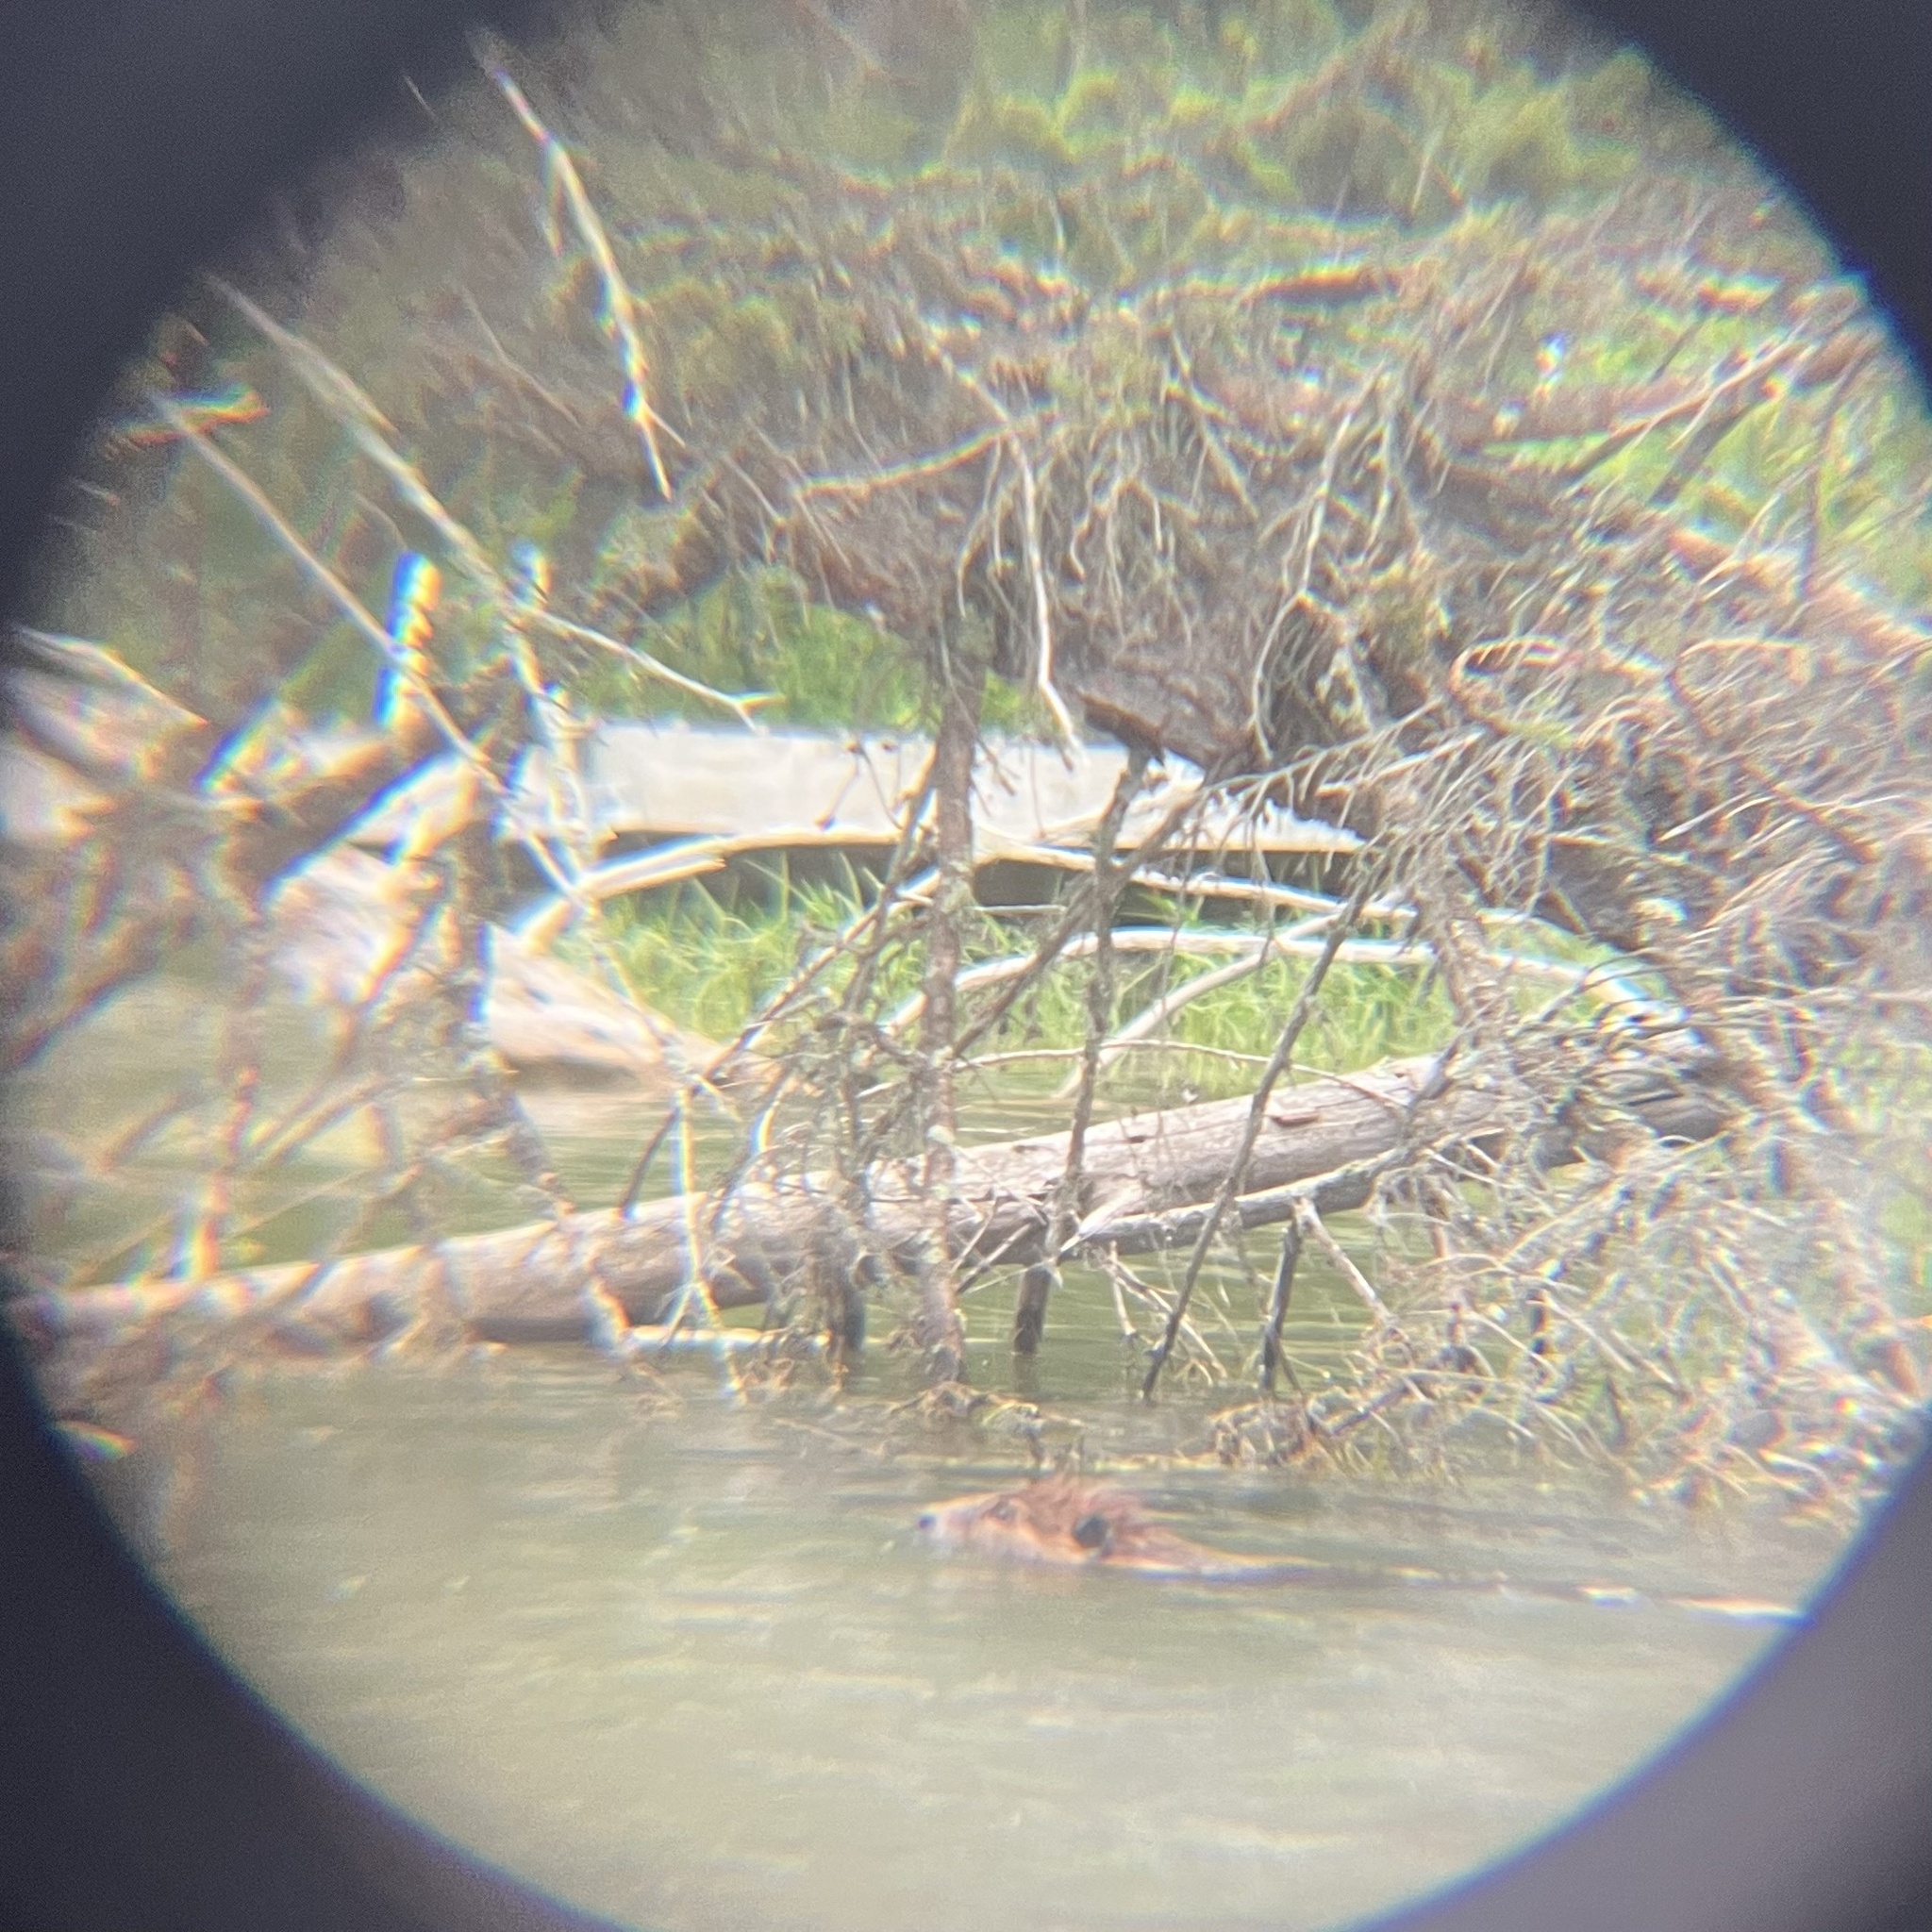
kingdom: Animalia
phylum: Chordata
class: Mammalia
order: Rodentia
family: Castoridae
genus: Castor
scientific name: Castor canadensis
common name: American beaver
